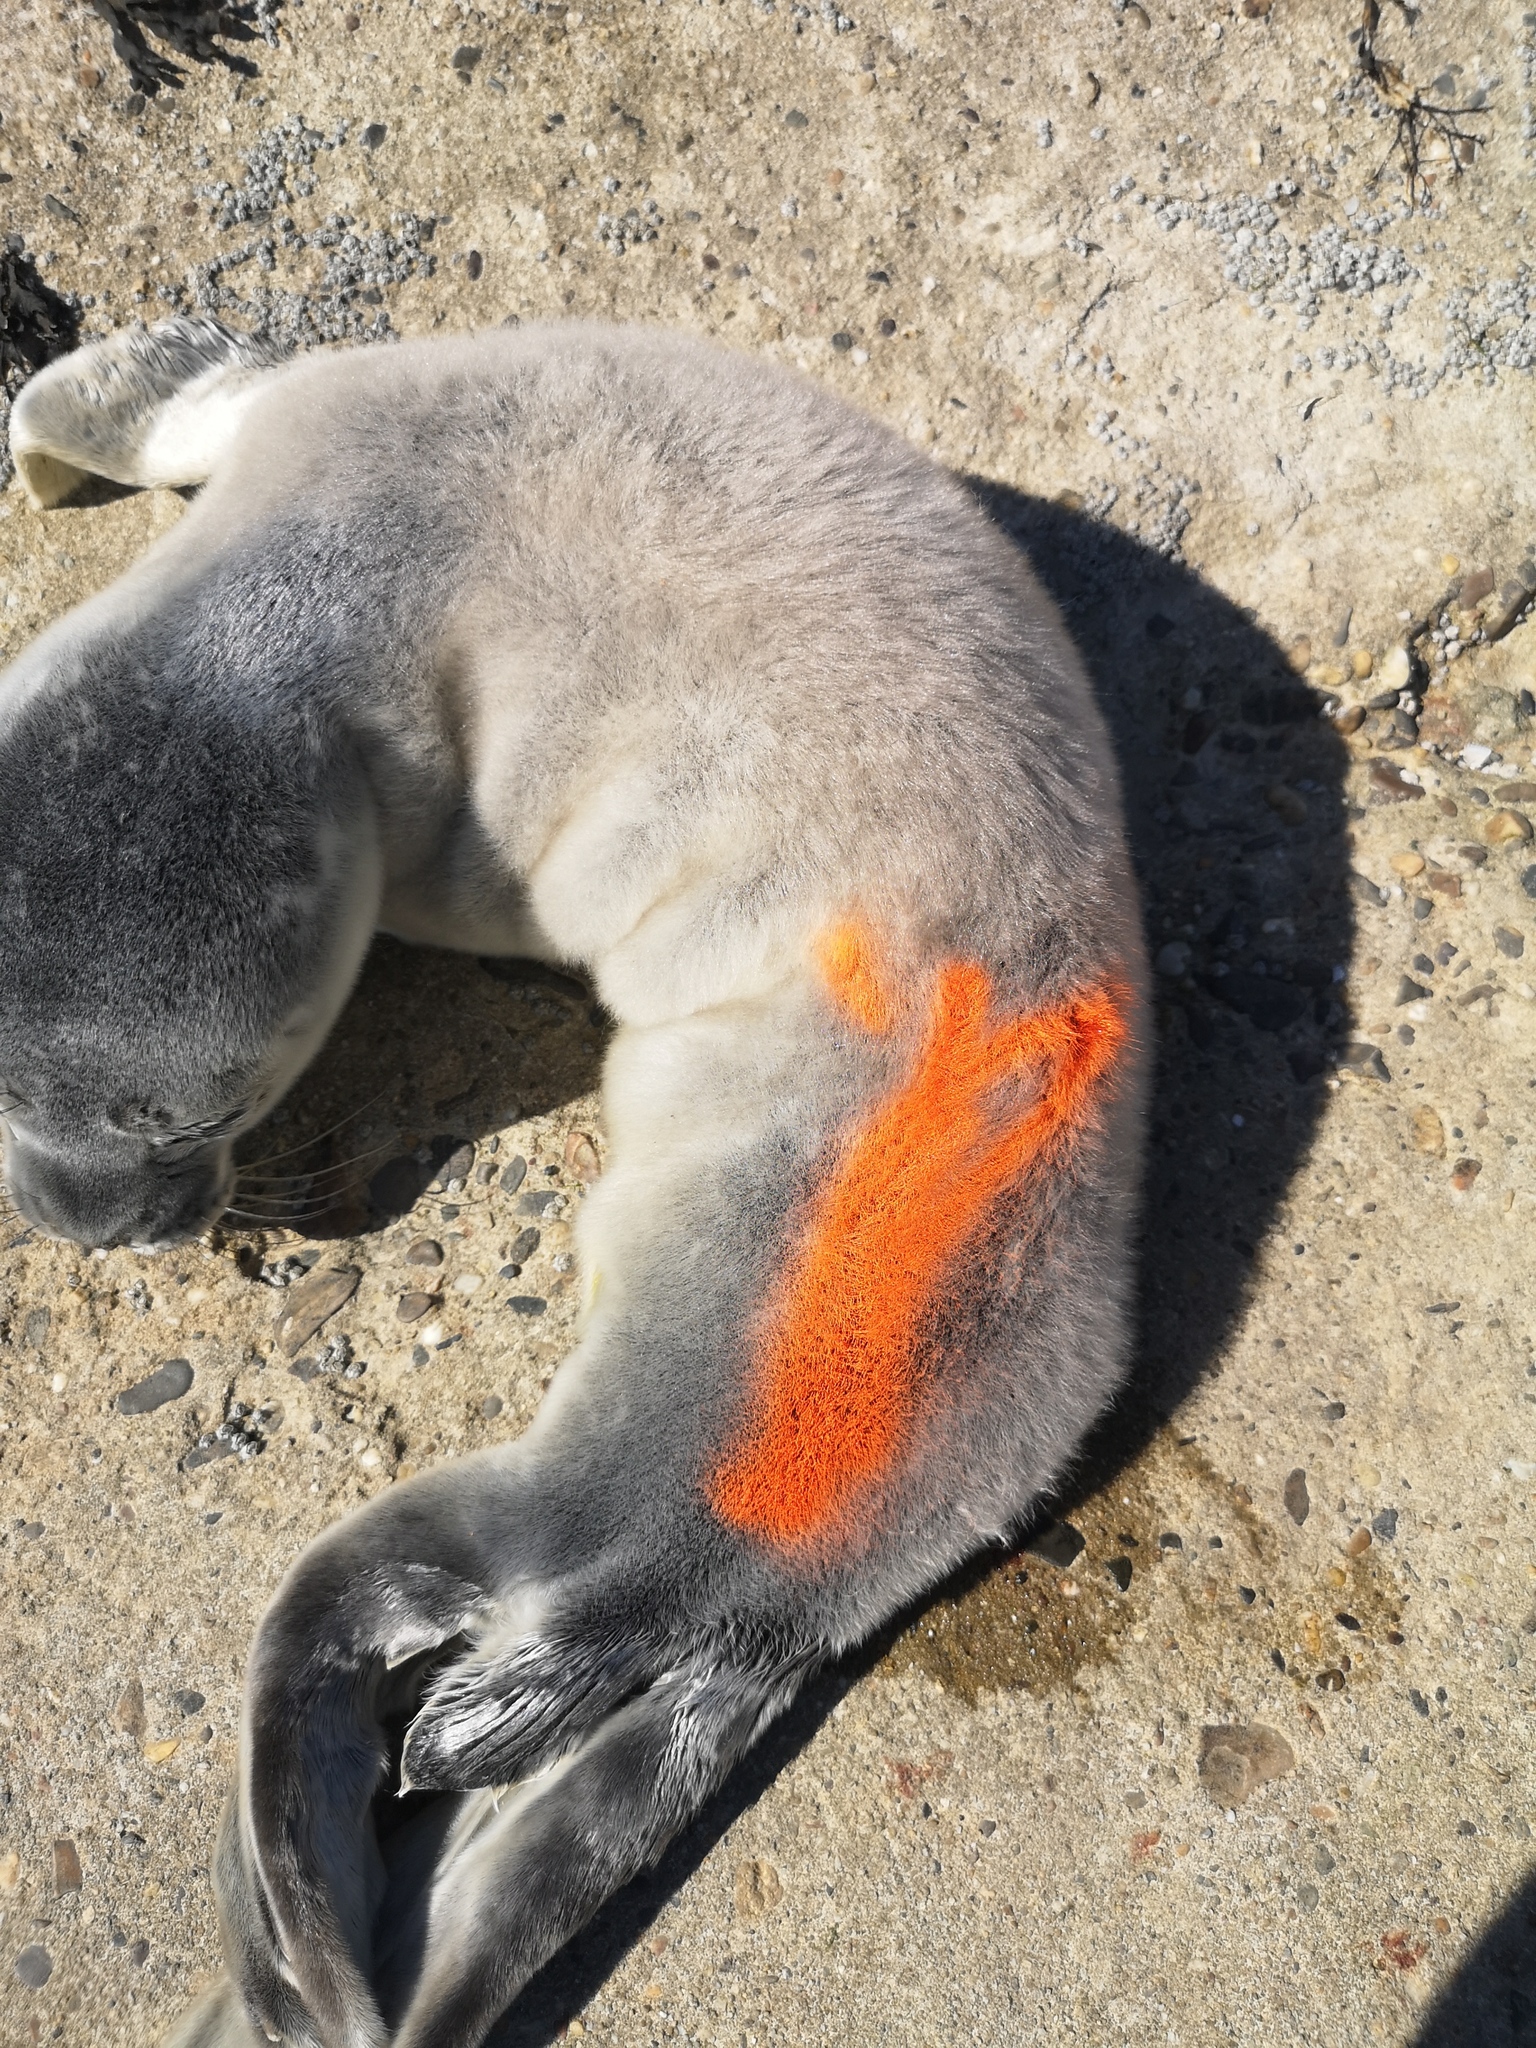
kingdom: Animalia
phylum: Chordata
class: Mammalia
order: Carnivora
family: Phocidae
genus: Phoca
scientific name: Phoca vitulina
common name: Harbor seal
